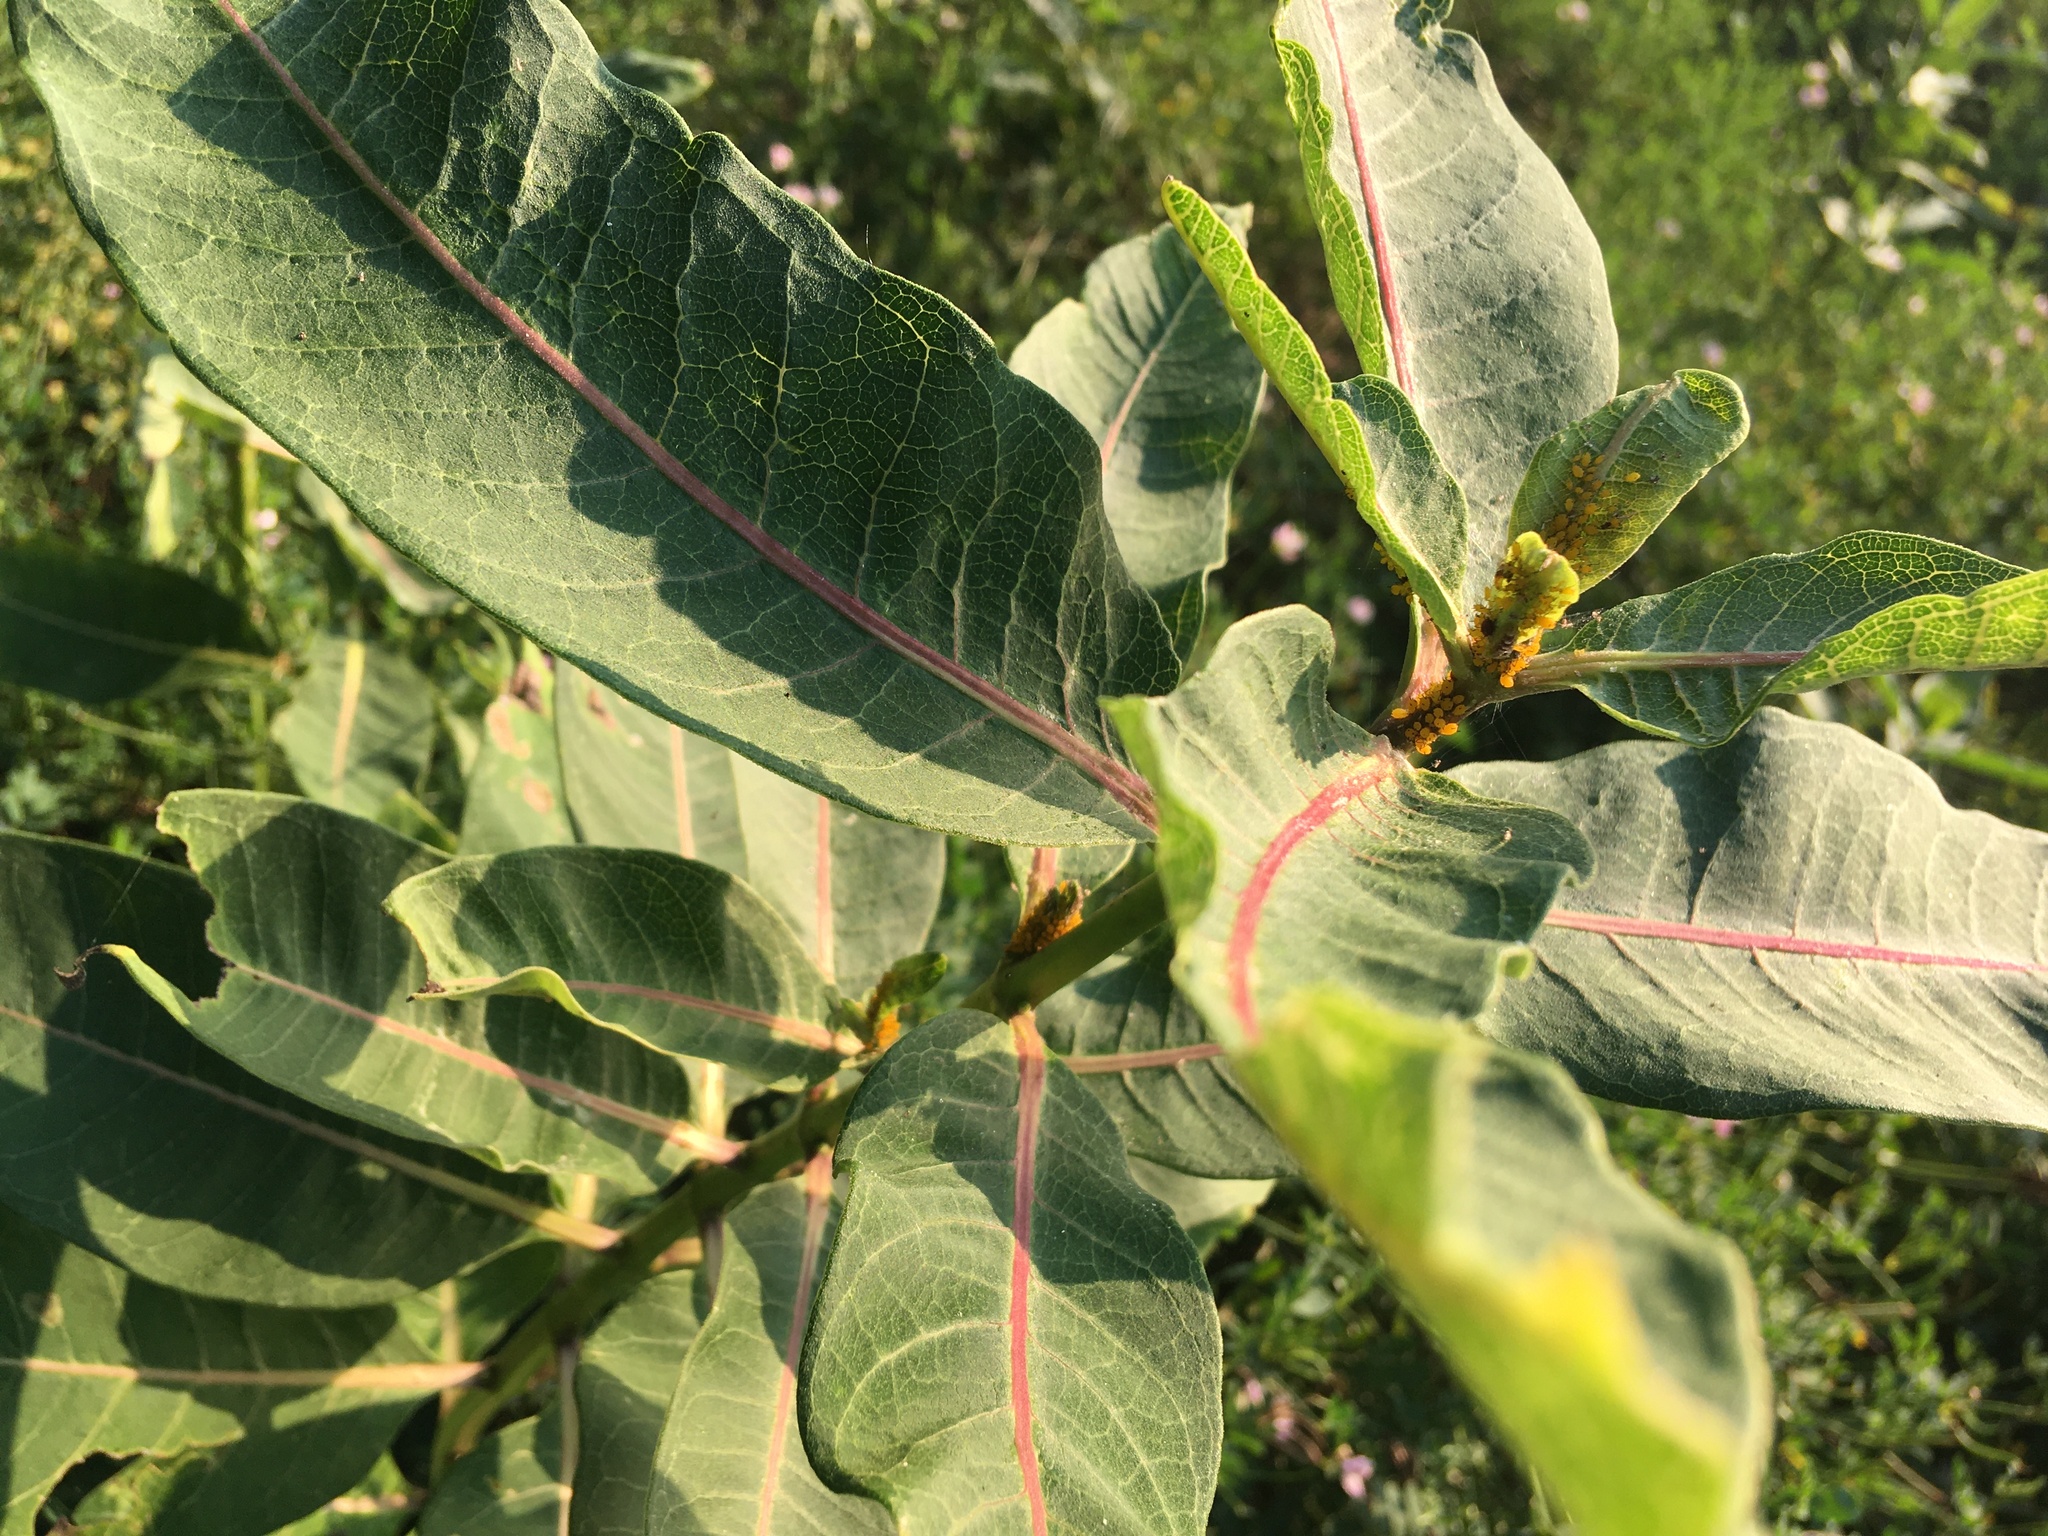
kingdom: Plantae
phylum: Tracheophyta
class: Magnoliopsida
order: Gentianales
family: Apocynaceae
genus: Asclepias
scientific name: Asclepias syriaca
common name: Common milkweed
